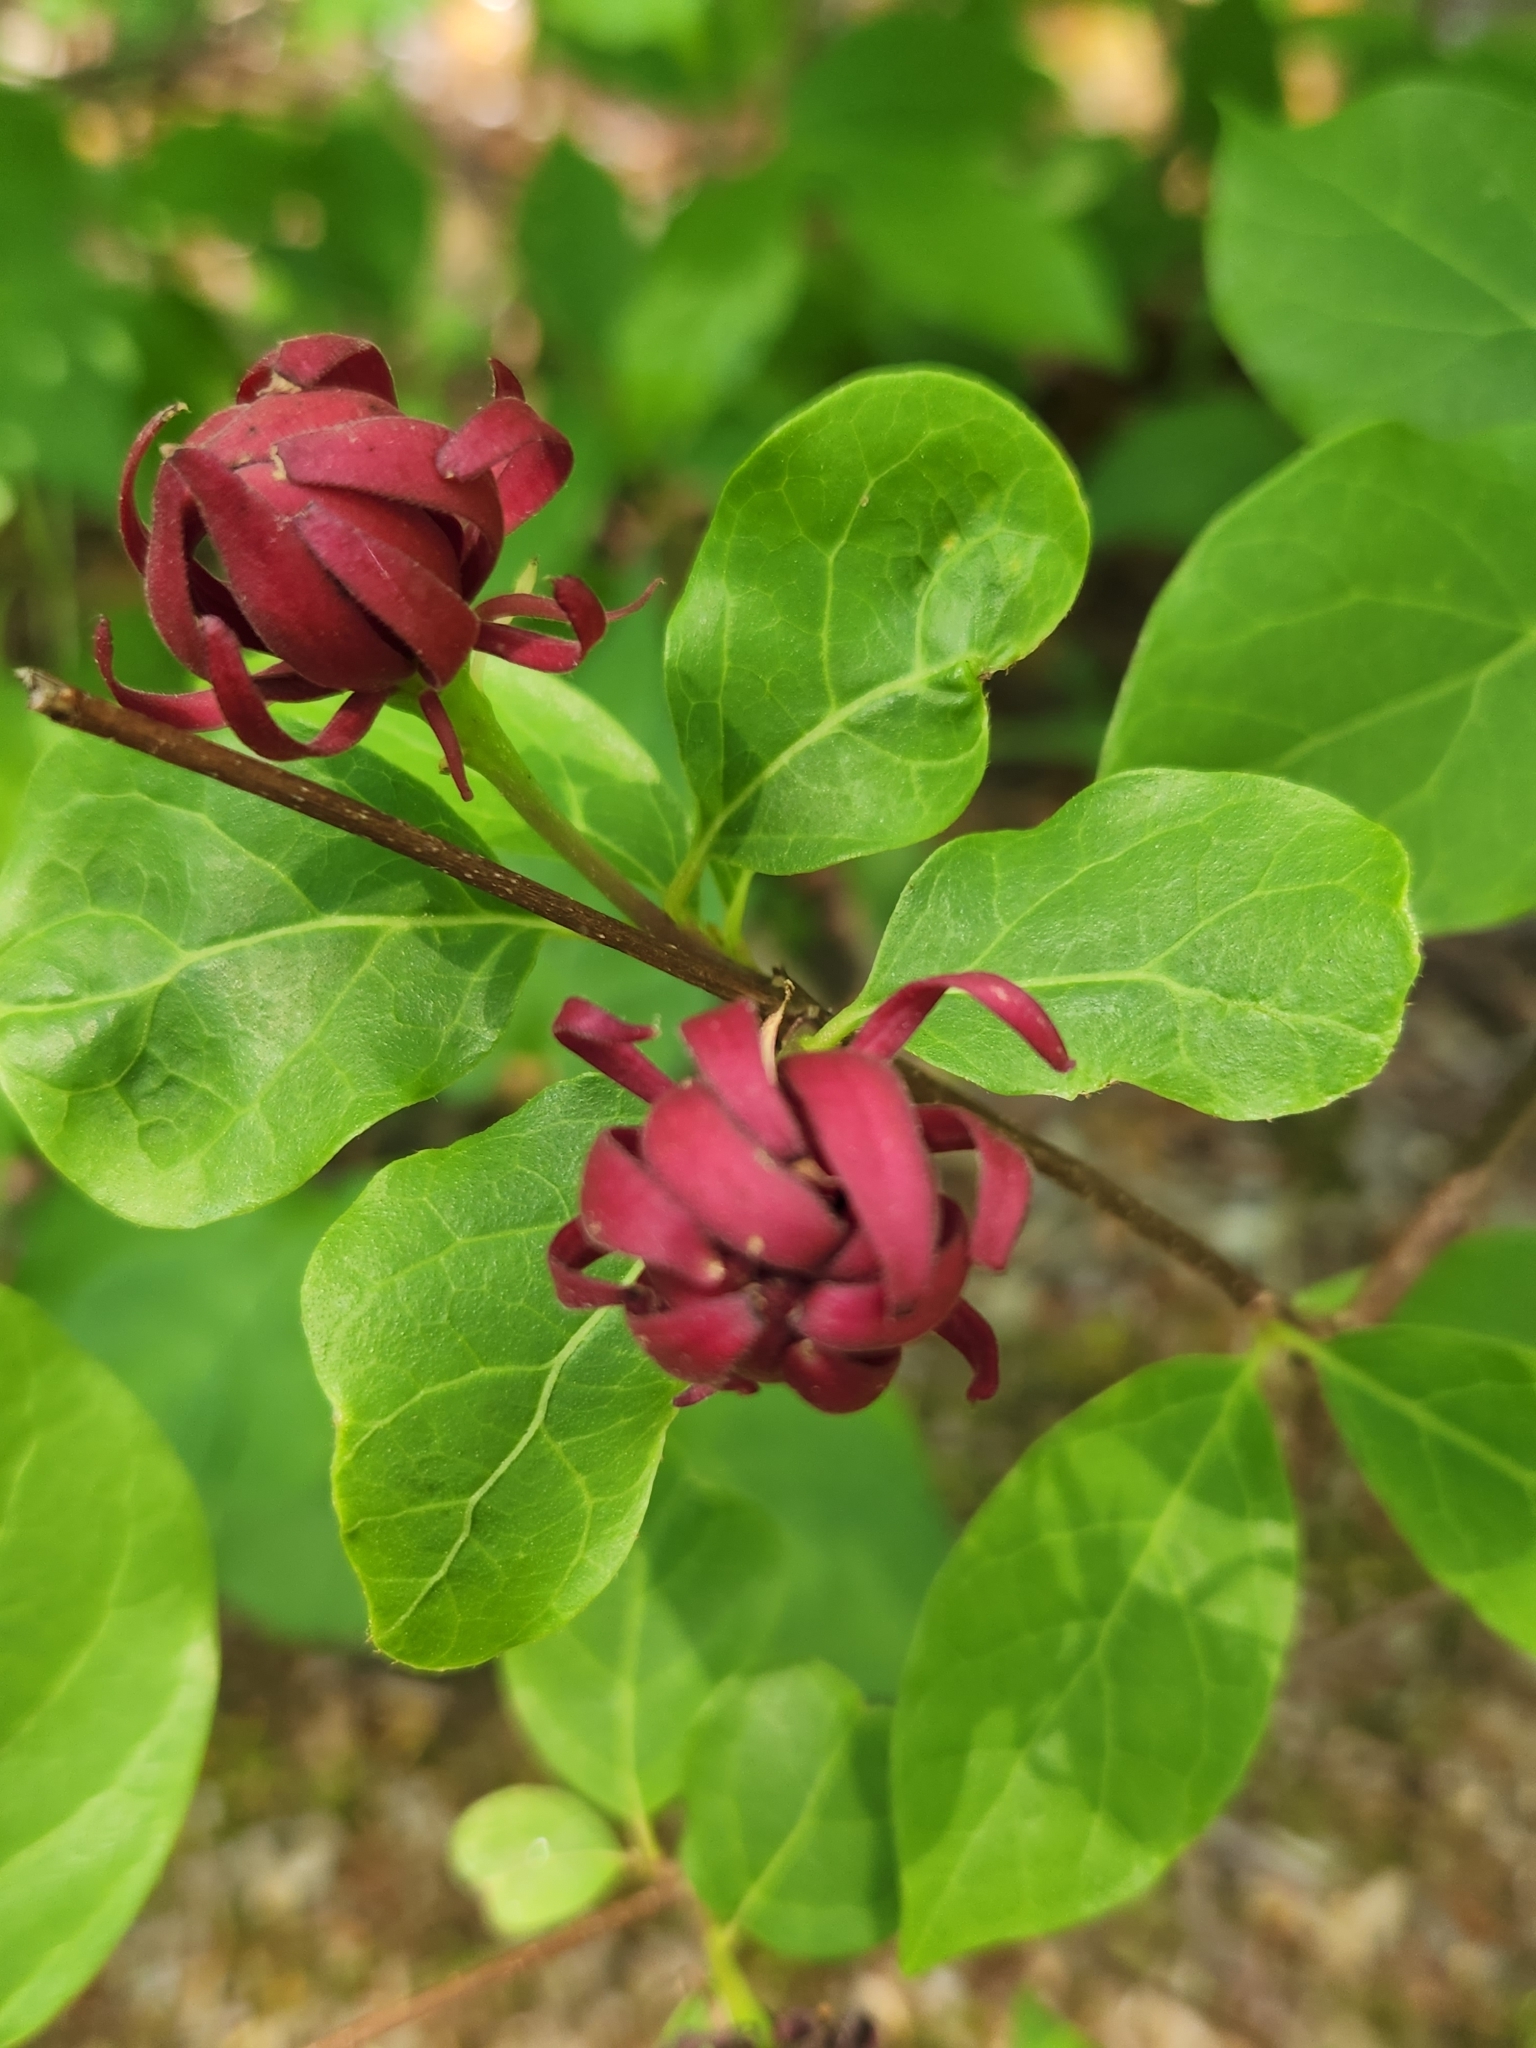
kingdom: Plantae
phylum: Tracheophyta
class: Magnoliopsida
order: Laurales
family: Calycanthaceae
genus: Calycanthus
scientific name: Calycanthus floridus
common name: Carolina-allspice
